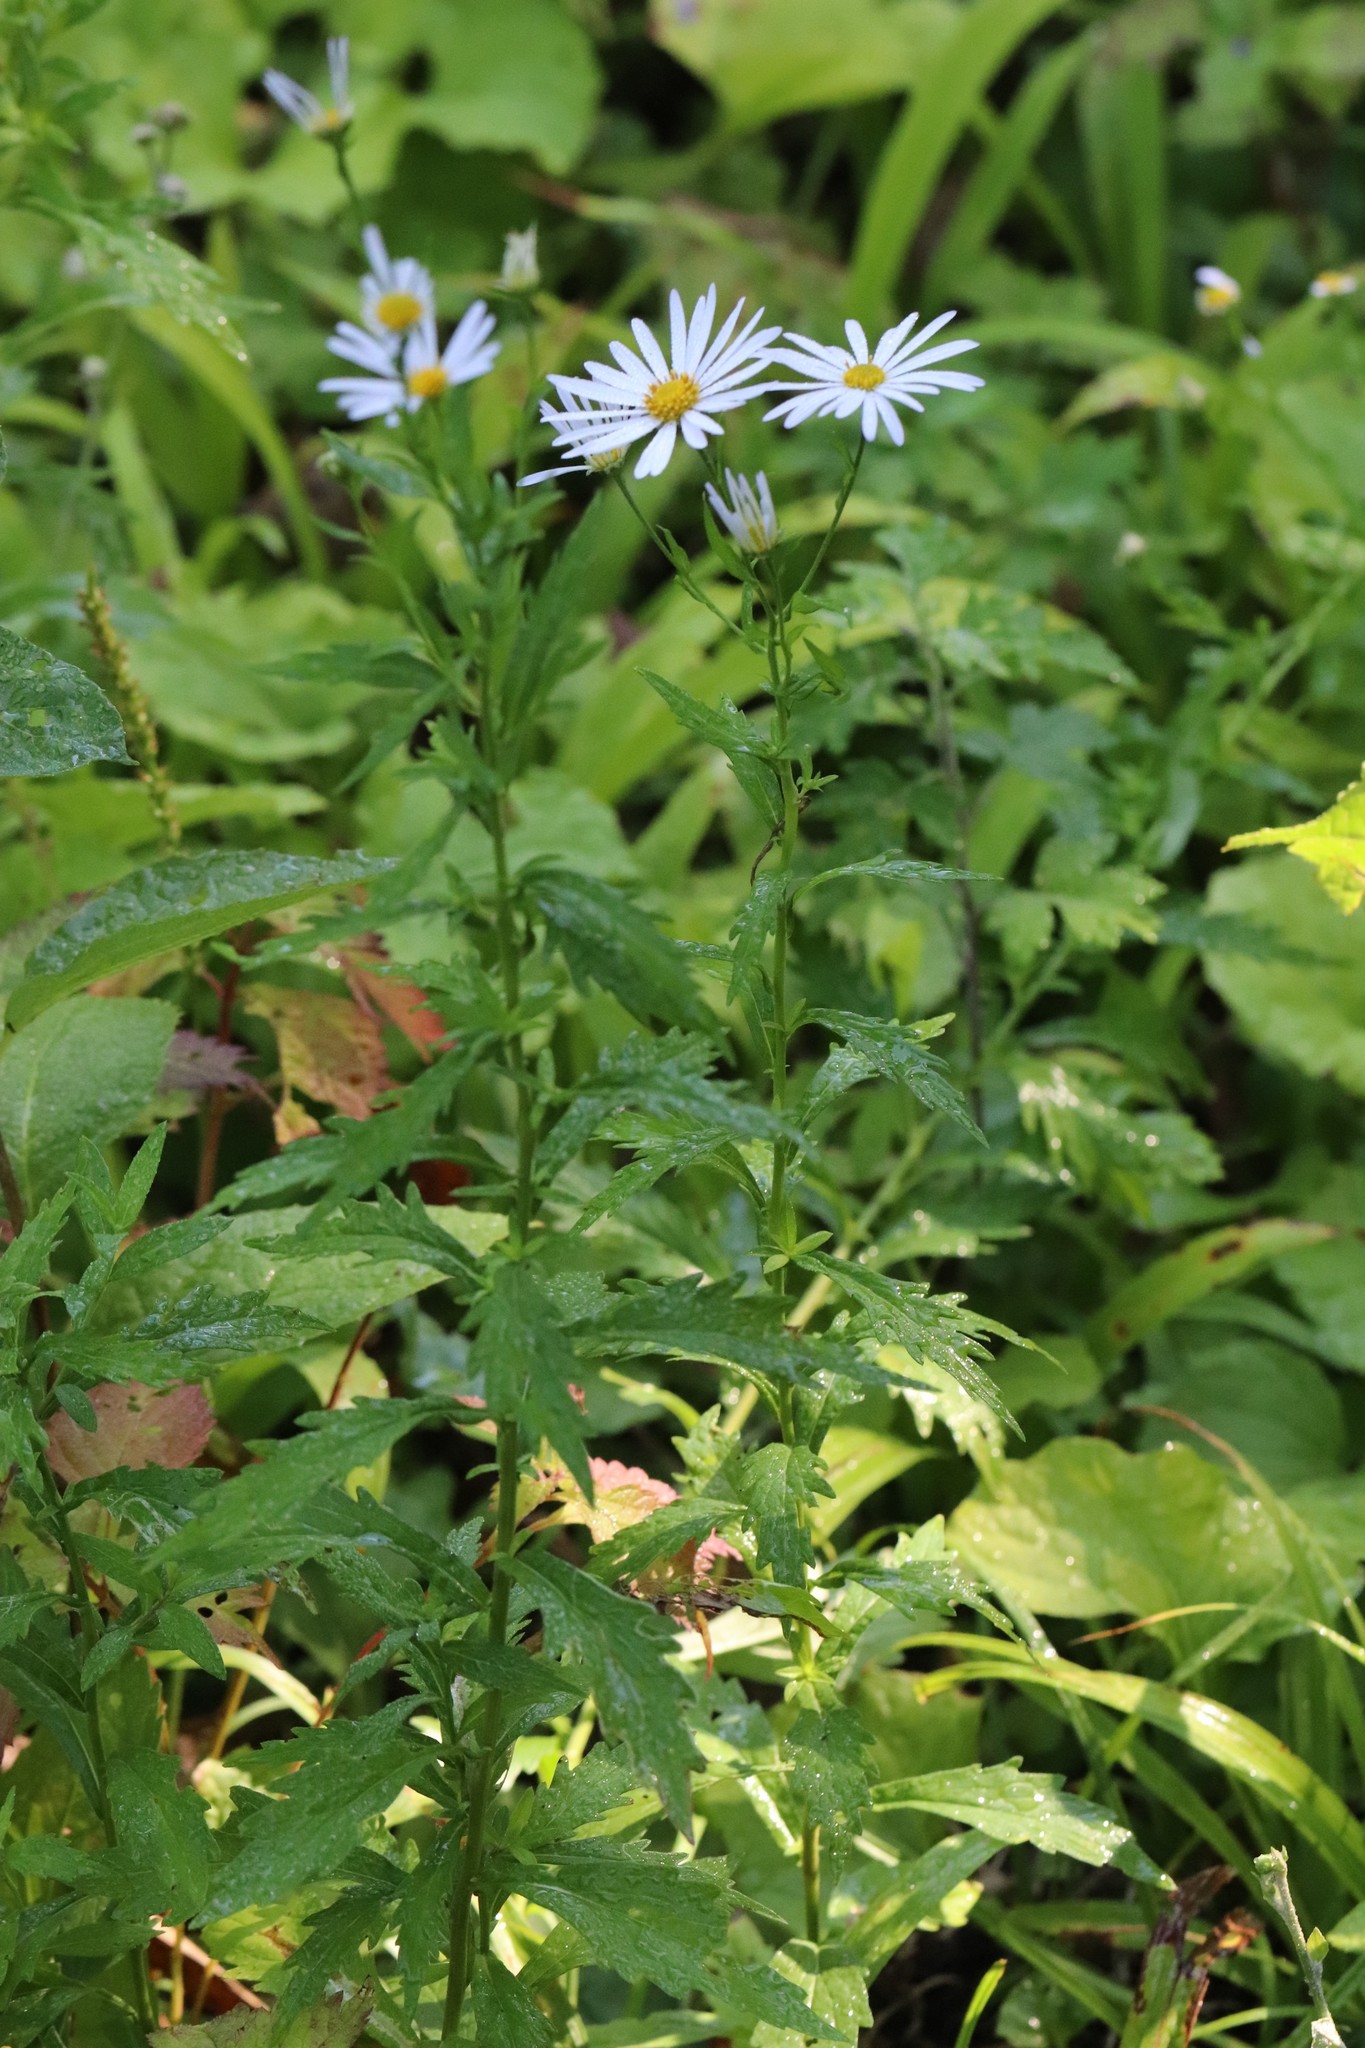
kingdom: Plantae
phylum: Tracheophyta
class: Magnoliopsida
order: Asterales
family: Asteraceae
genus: Kalimeris
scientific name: Kalimeris incisa
